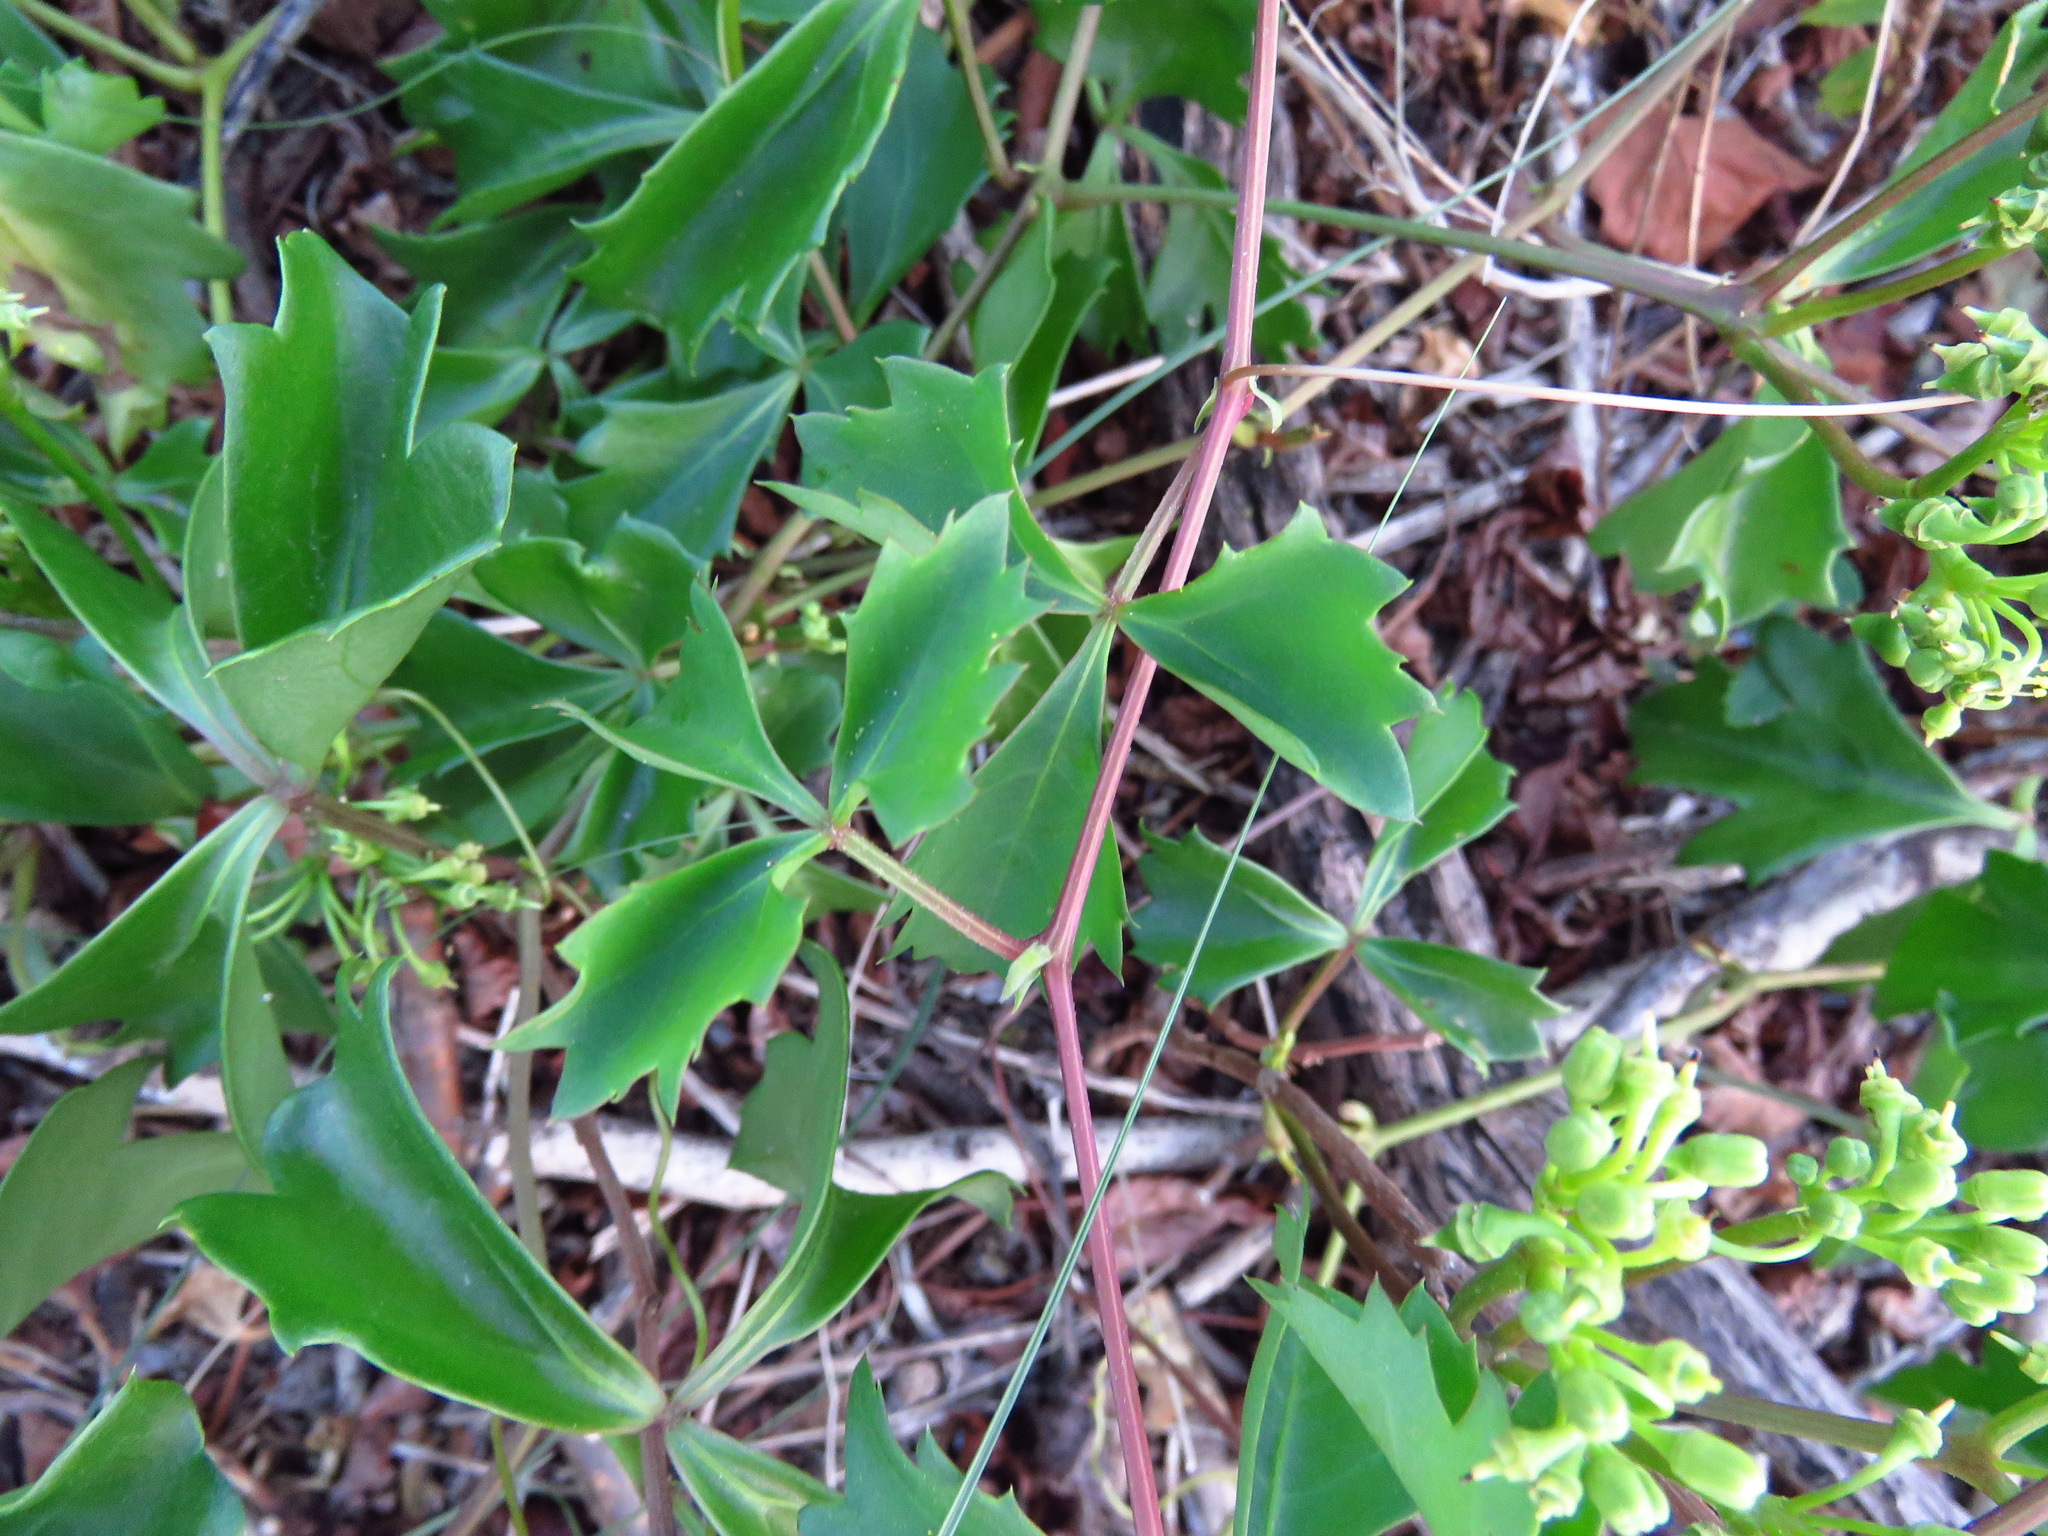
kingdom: Plantae
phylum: Tracheophyta
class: Magnoliopsida
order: Vitales
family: Vitaceae
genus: Cissus
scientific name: Cissus trifoliata
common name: Vine-sorrel
